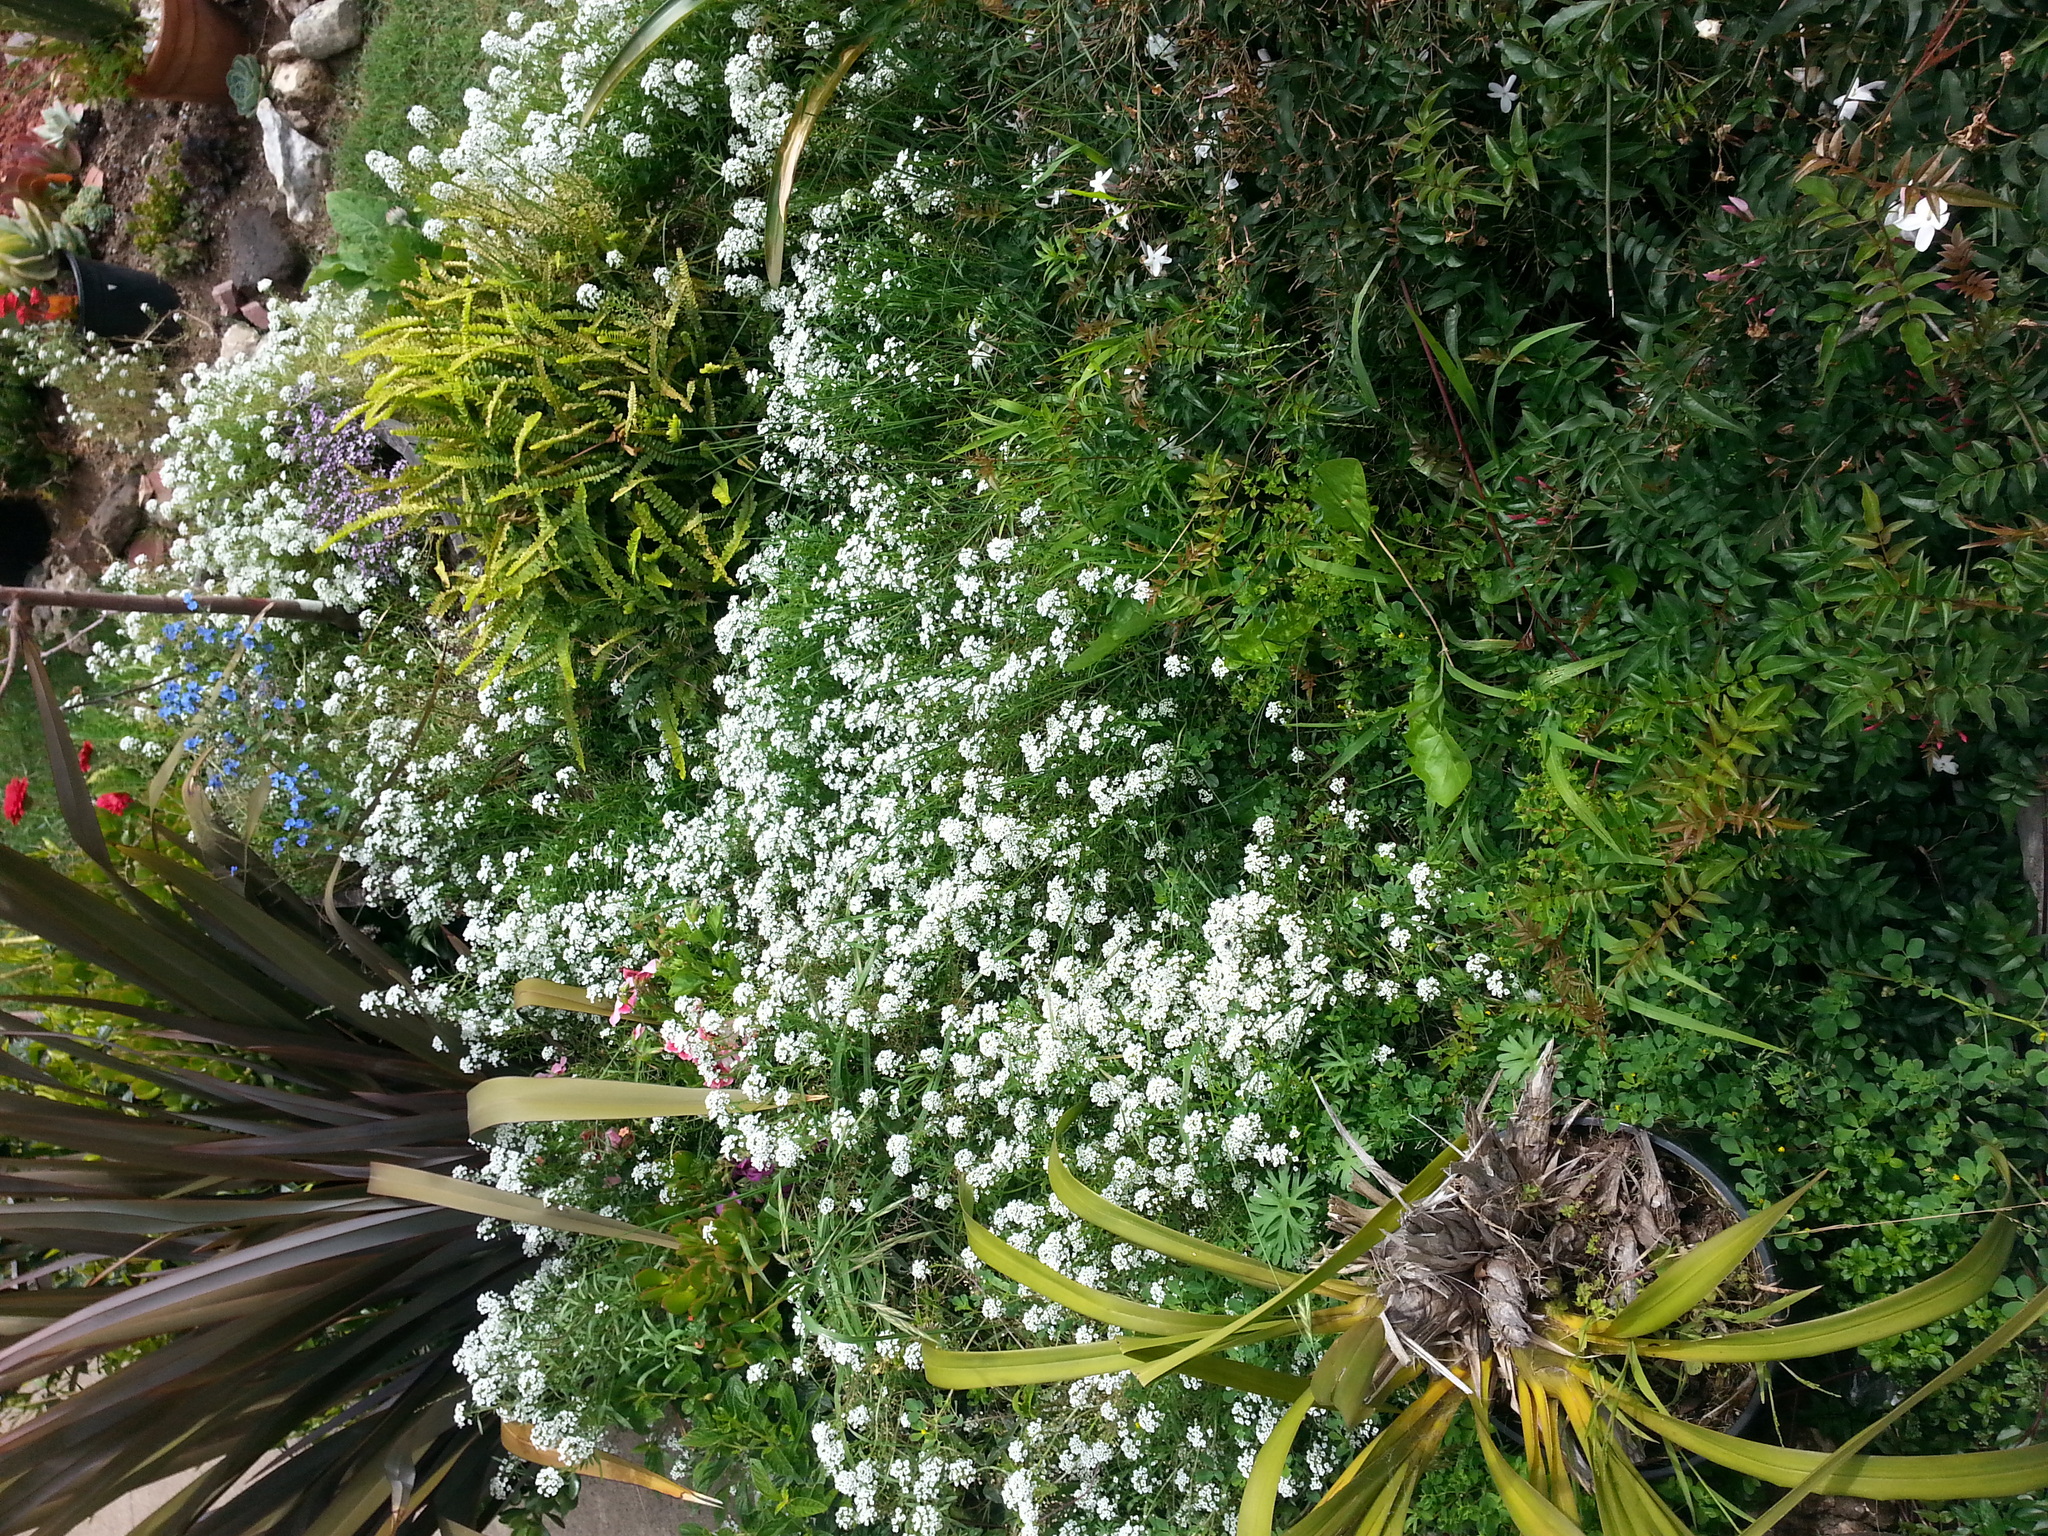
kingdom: Plantae
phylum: Tracheophyta
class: Magnoliopsida
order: Brassicales
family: Brassicaceae
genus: Lobularia
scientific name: Lobularia maritima
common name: Sweet alison
